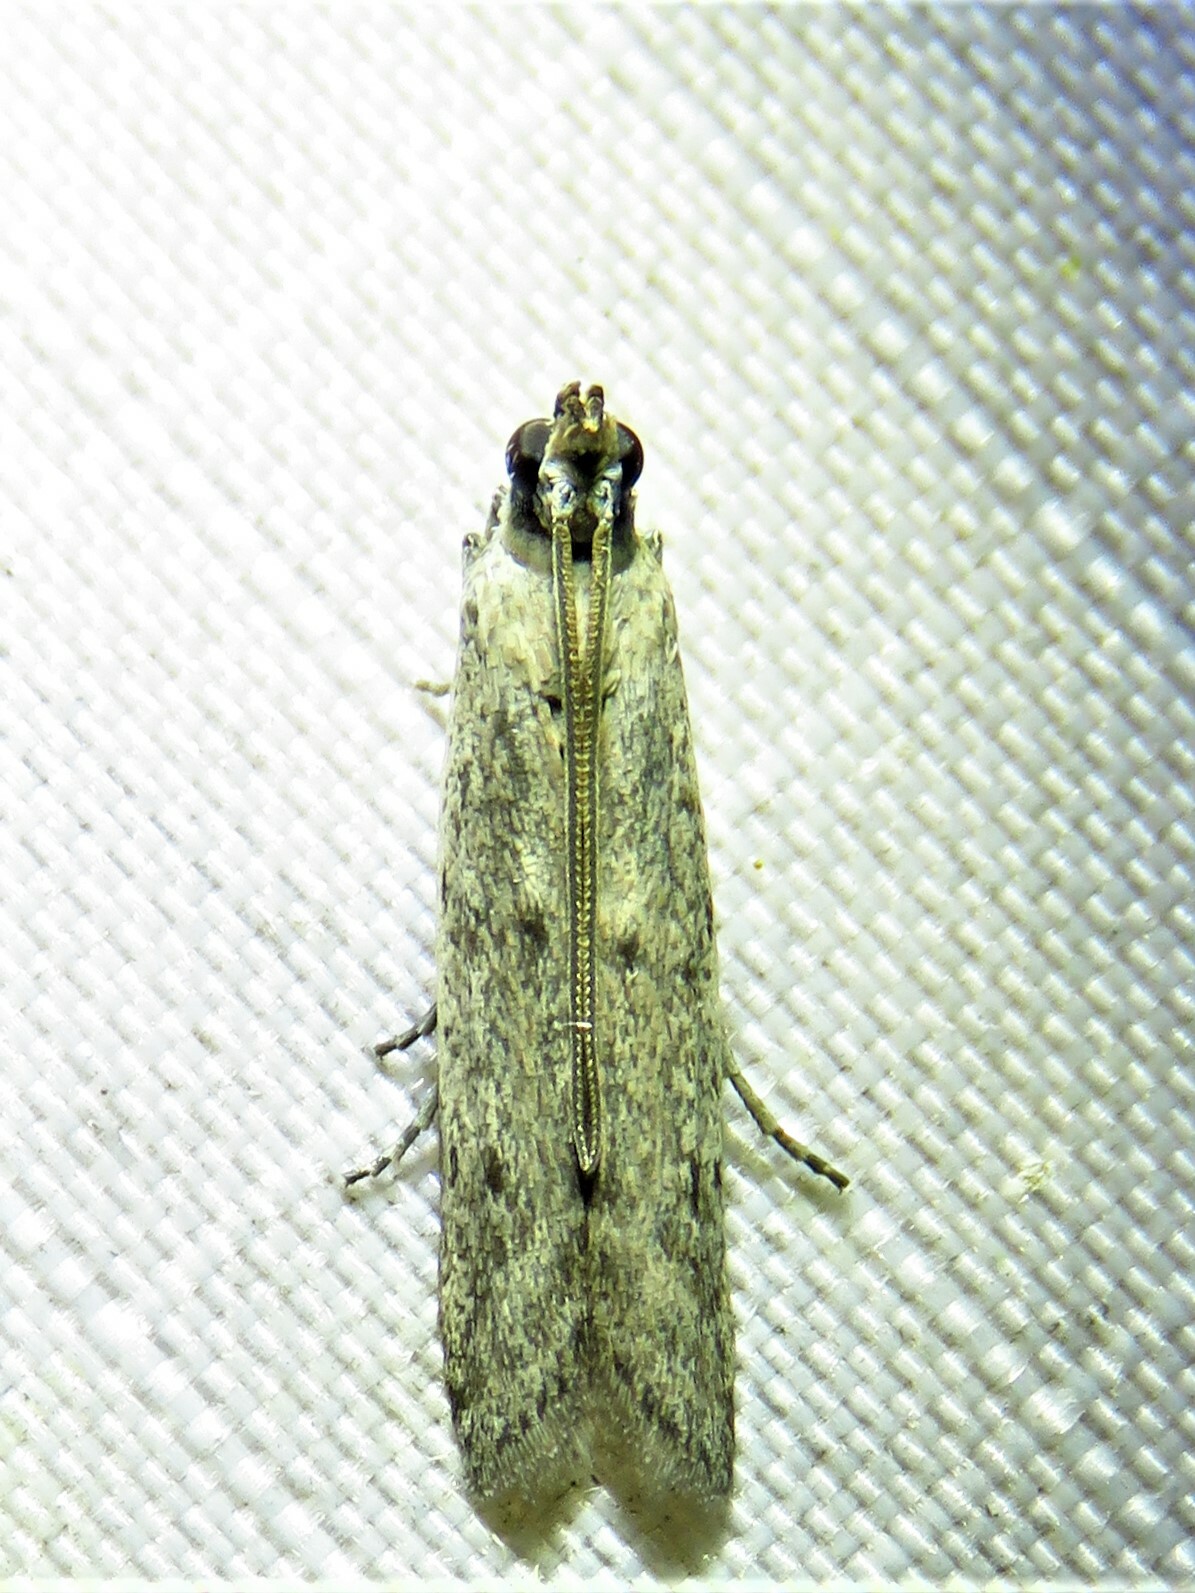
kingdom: Animalia
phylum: Arthropoda
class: Insecta
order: Lepidoptera
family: Pyralidae
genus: Homoeosoma
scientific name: Homoeosoma electella
